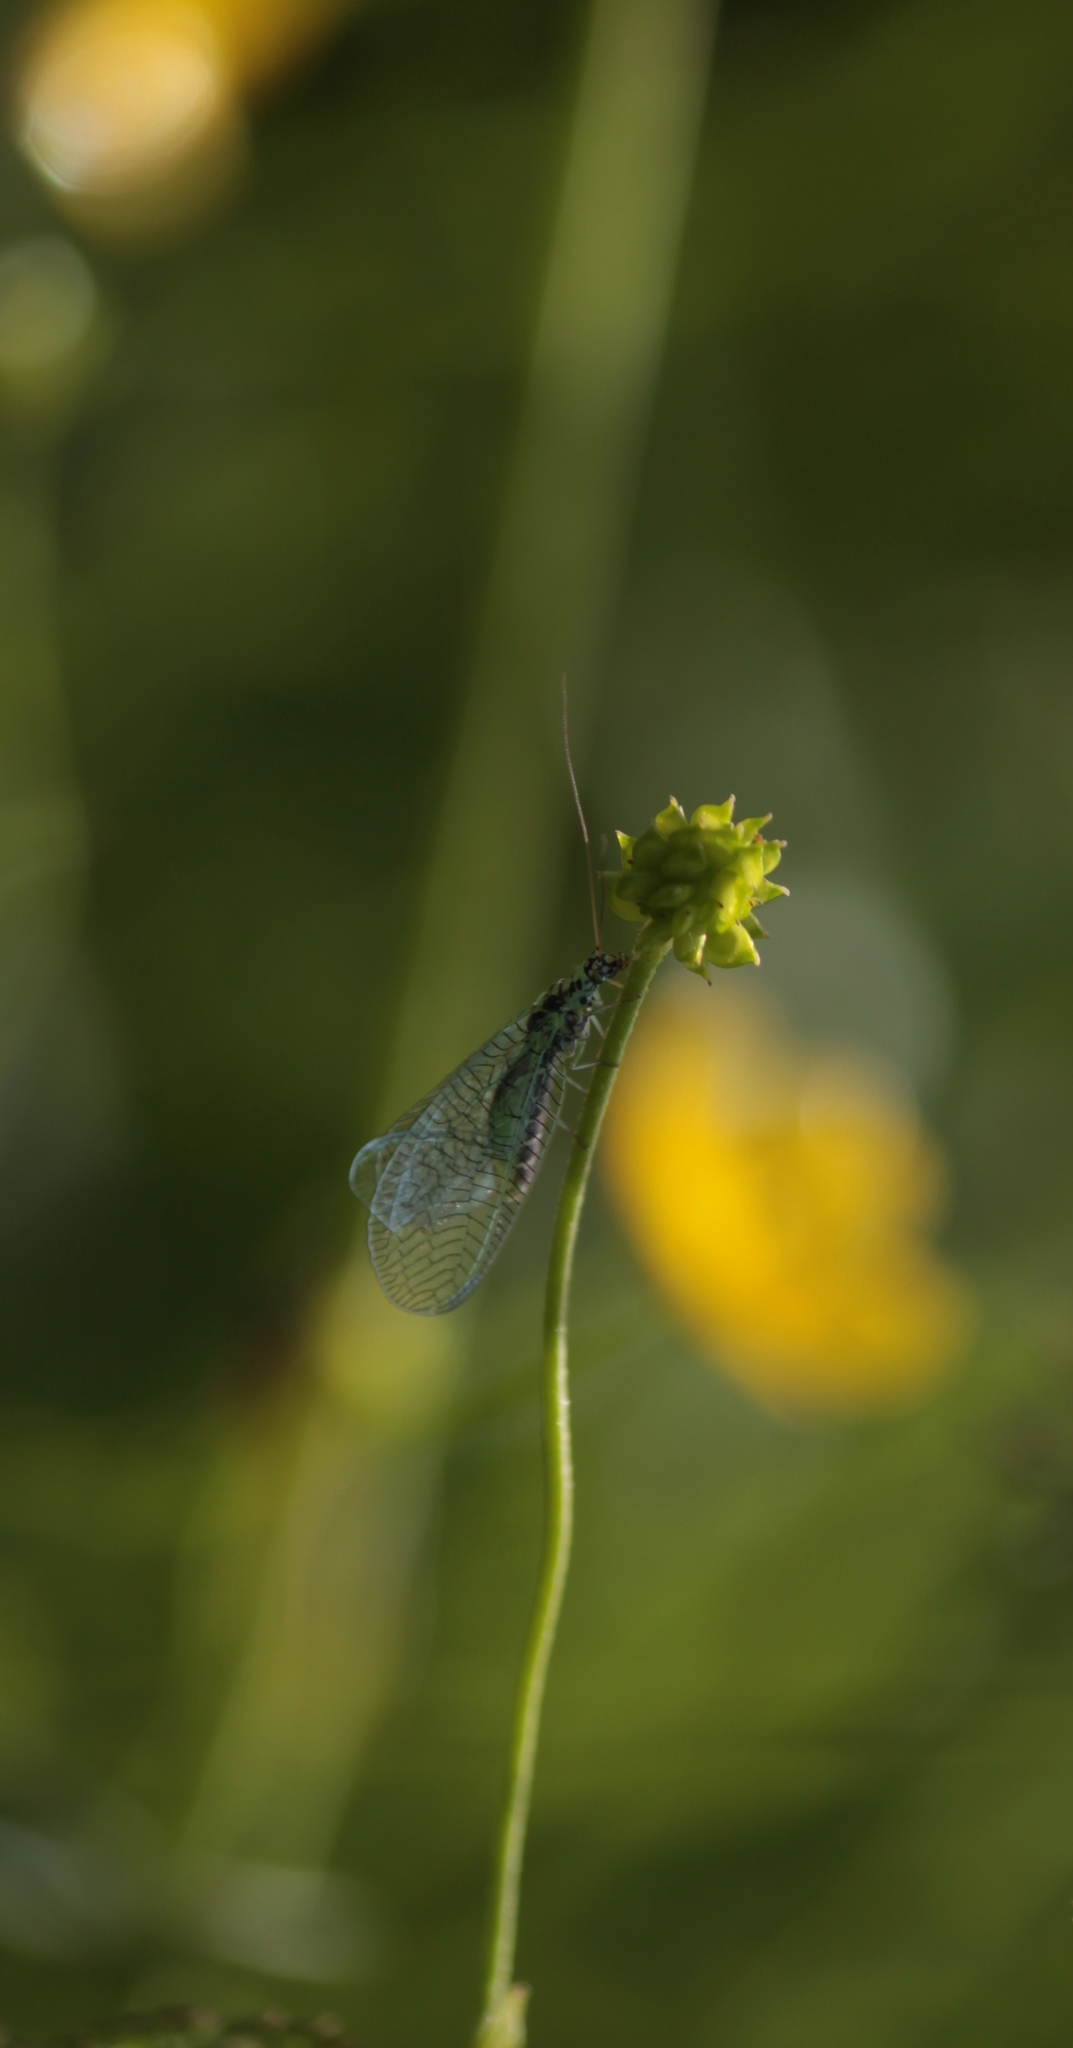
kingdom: Animalia
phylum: Arthropoda
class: Insecta
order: Neuroptera
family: Chrysopidae
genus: Chrysopa
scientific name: Chrysopa perla
